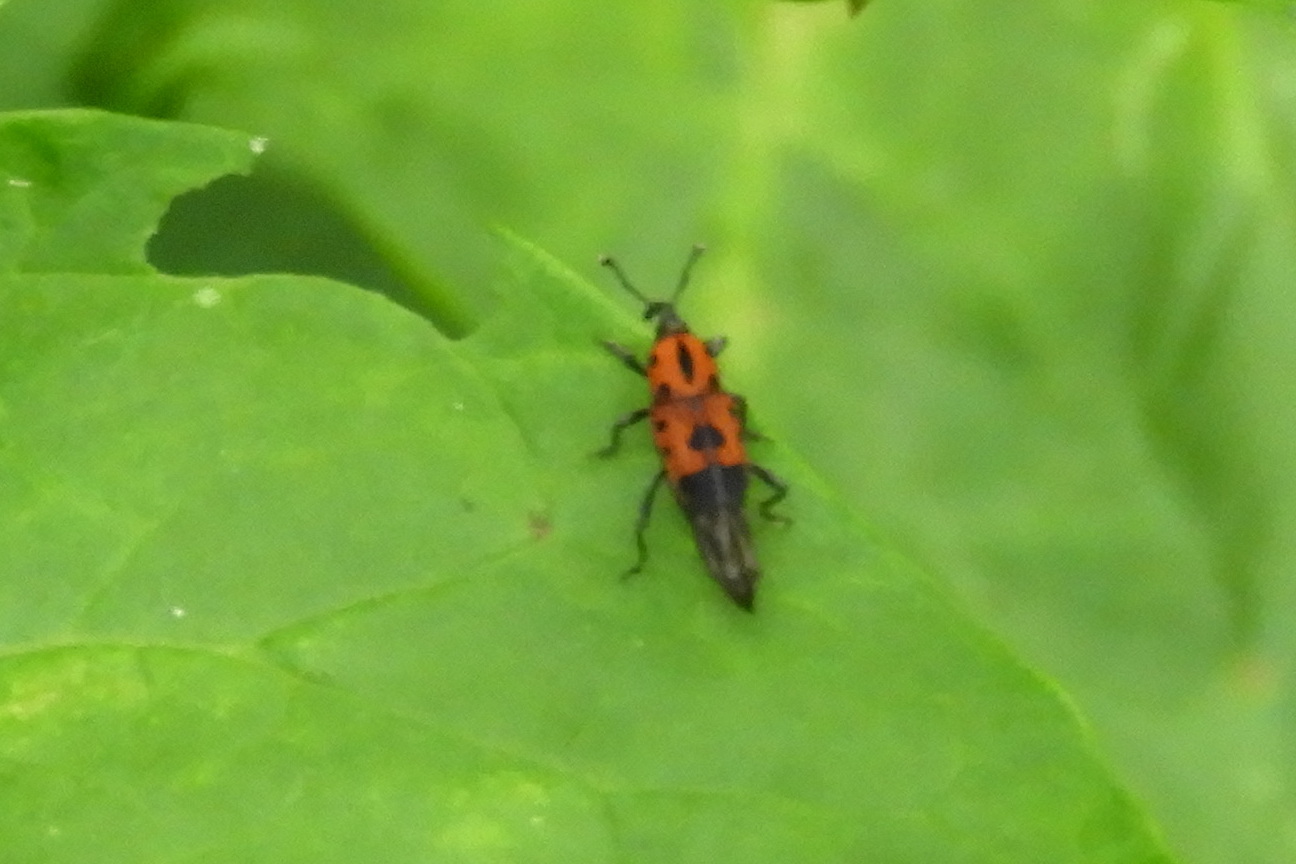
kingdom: Animalia
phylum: Arthropoda
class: Insecta
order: Coleoptera
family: Dryophthoridae
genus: Rhodobaenus
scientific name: Rhodobaenus quinquepunctatus
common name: Cocklebur weevil
